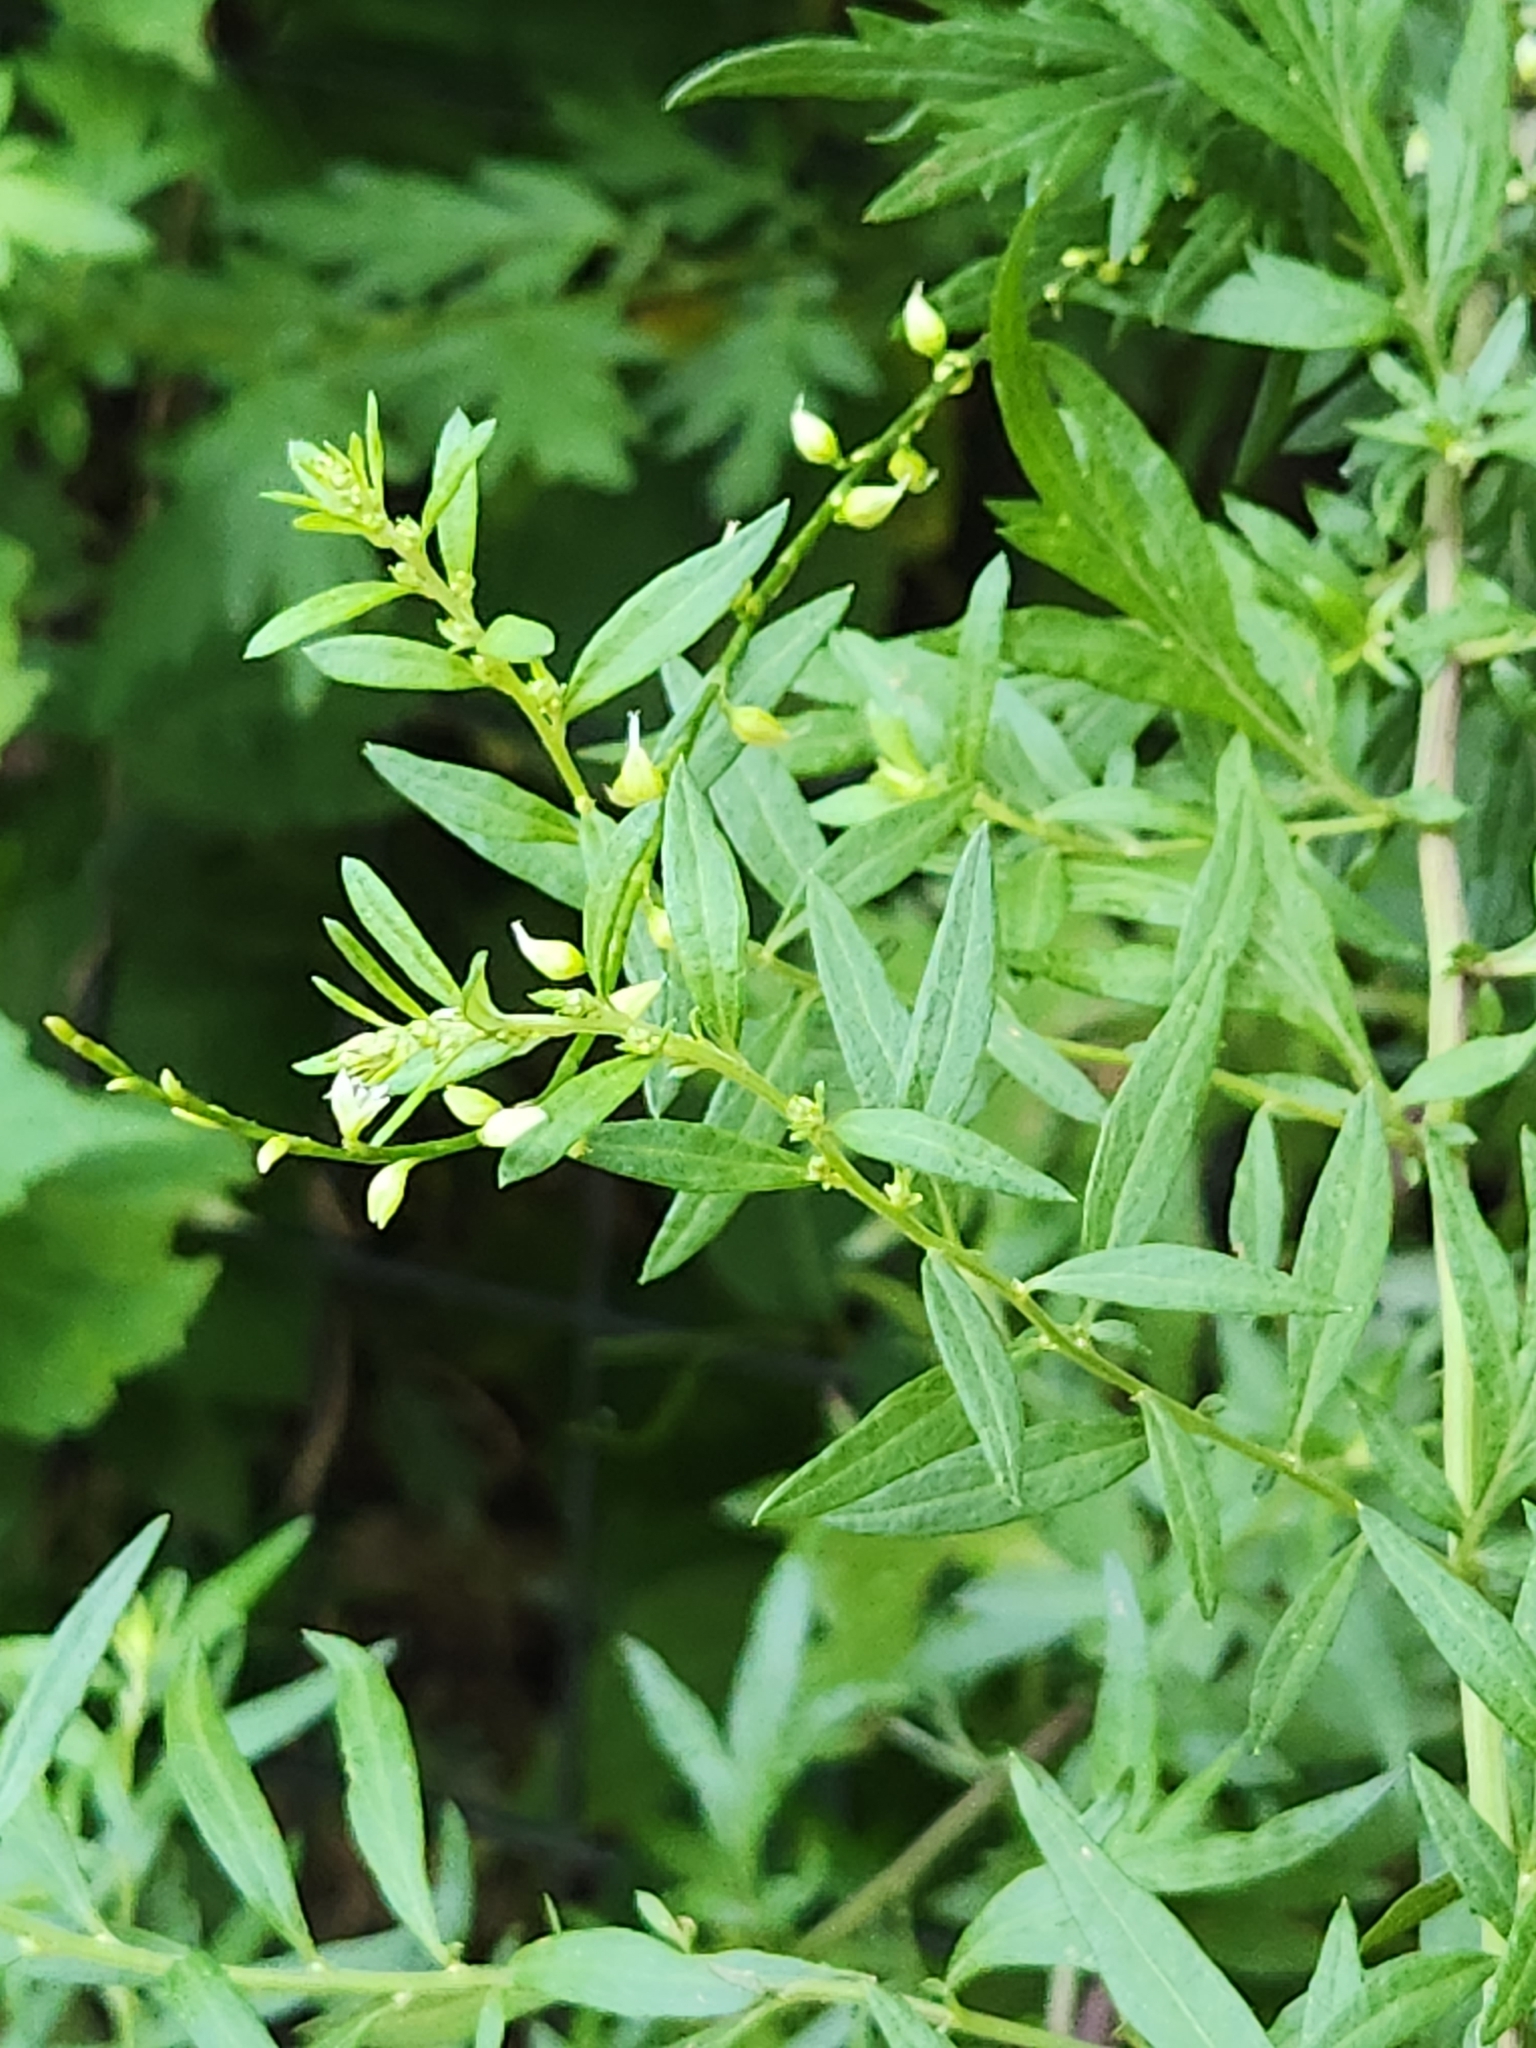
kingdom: Plantae
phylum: Tracheophyta
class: Magnoliopsida
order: Caryophyllales
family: Polygonaceae
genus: Persicaria
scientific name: Persicaria virginiana
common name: Jumpseed
